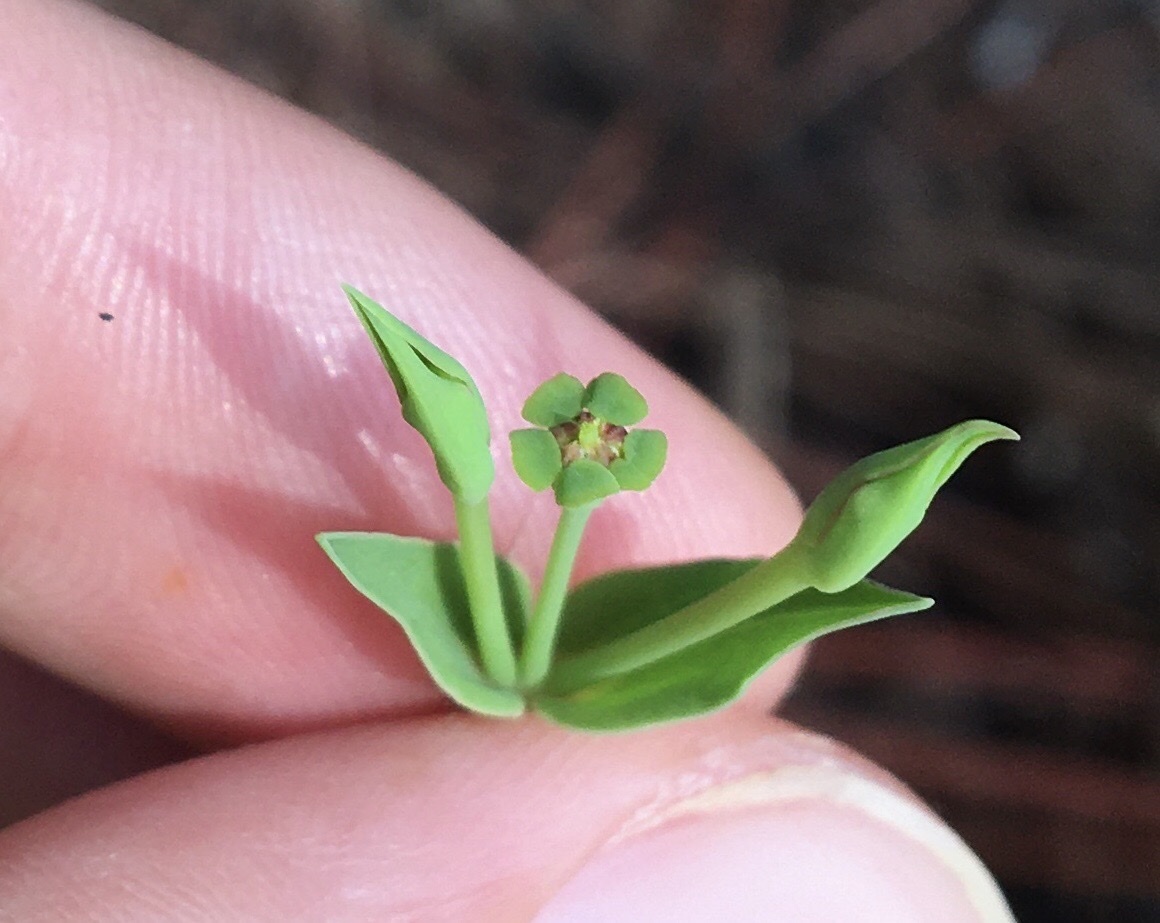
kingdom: Plantae
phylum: Tracheophyta
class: Magnoliopsida
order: Malpighiales
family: Euphorbiaceae
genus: Euphorbia
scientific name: Euphorbia inundata
